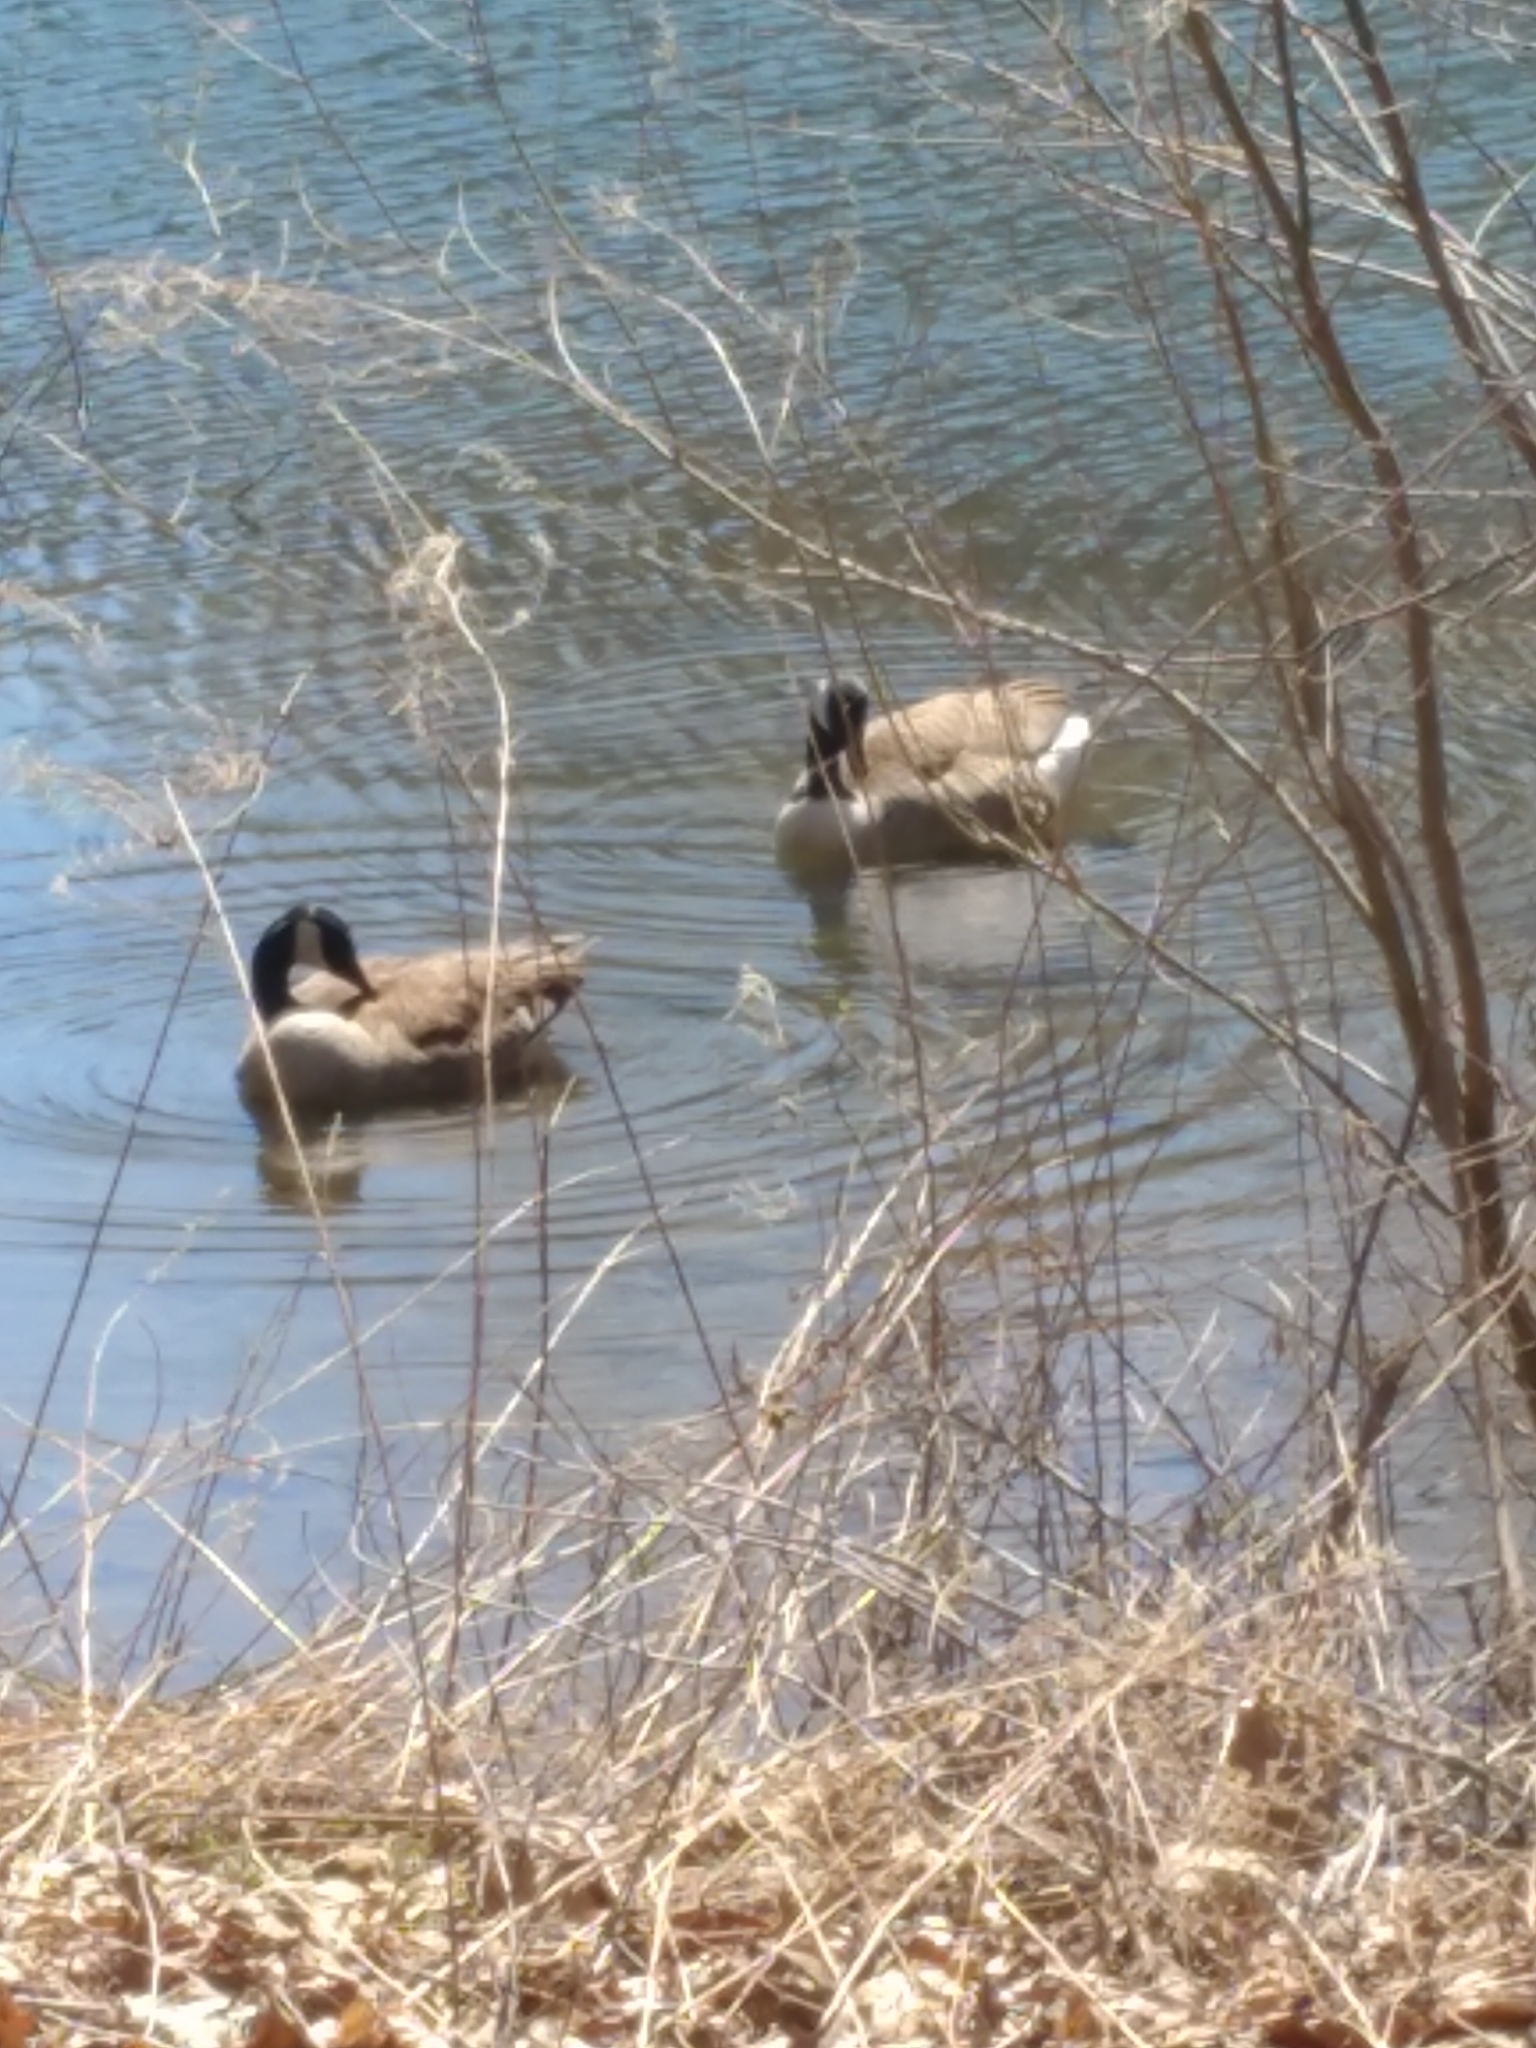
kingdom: Animalia
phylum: Chordata
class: Aves
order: Anseriformes
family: Anatidae
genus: Branta
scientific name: Branta canadensis
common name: Canada goose
